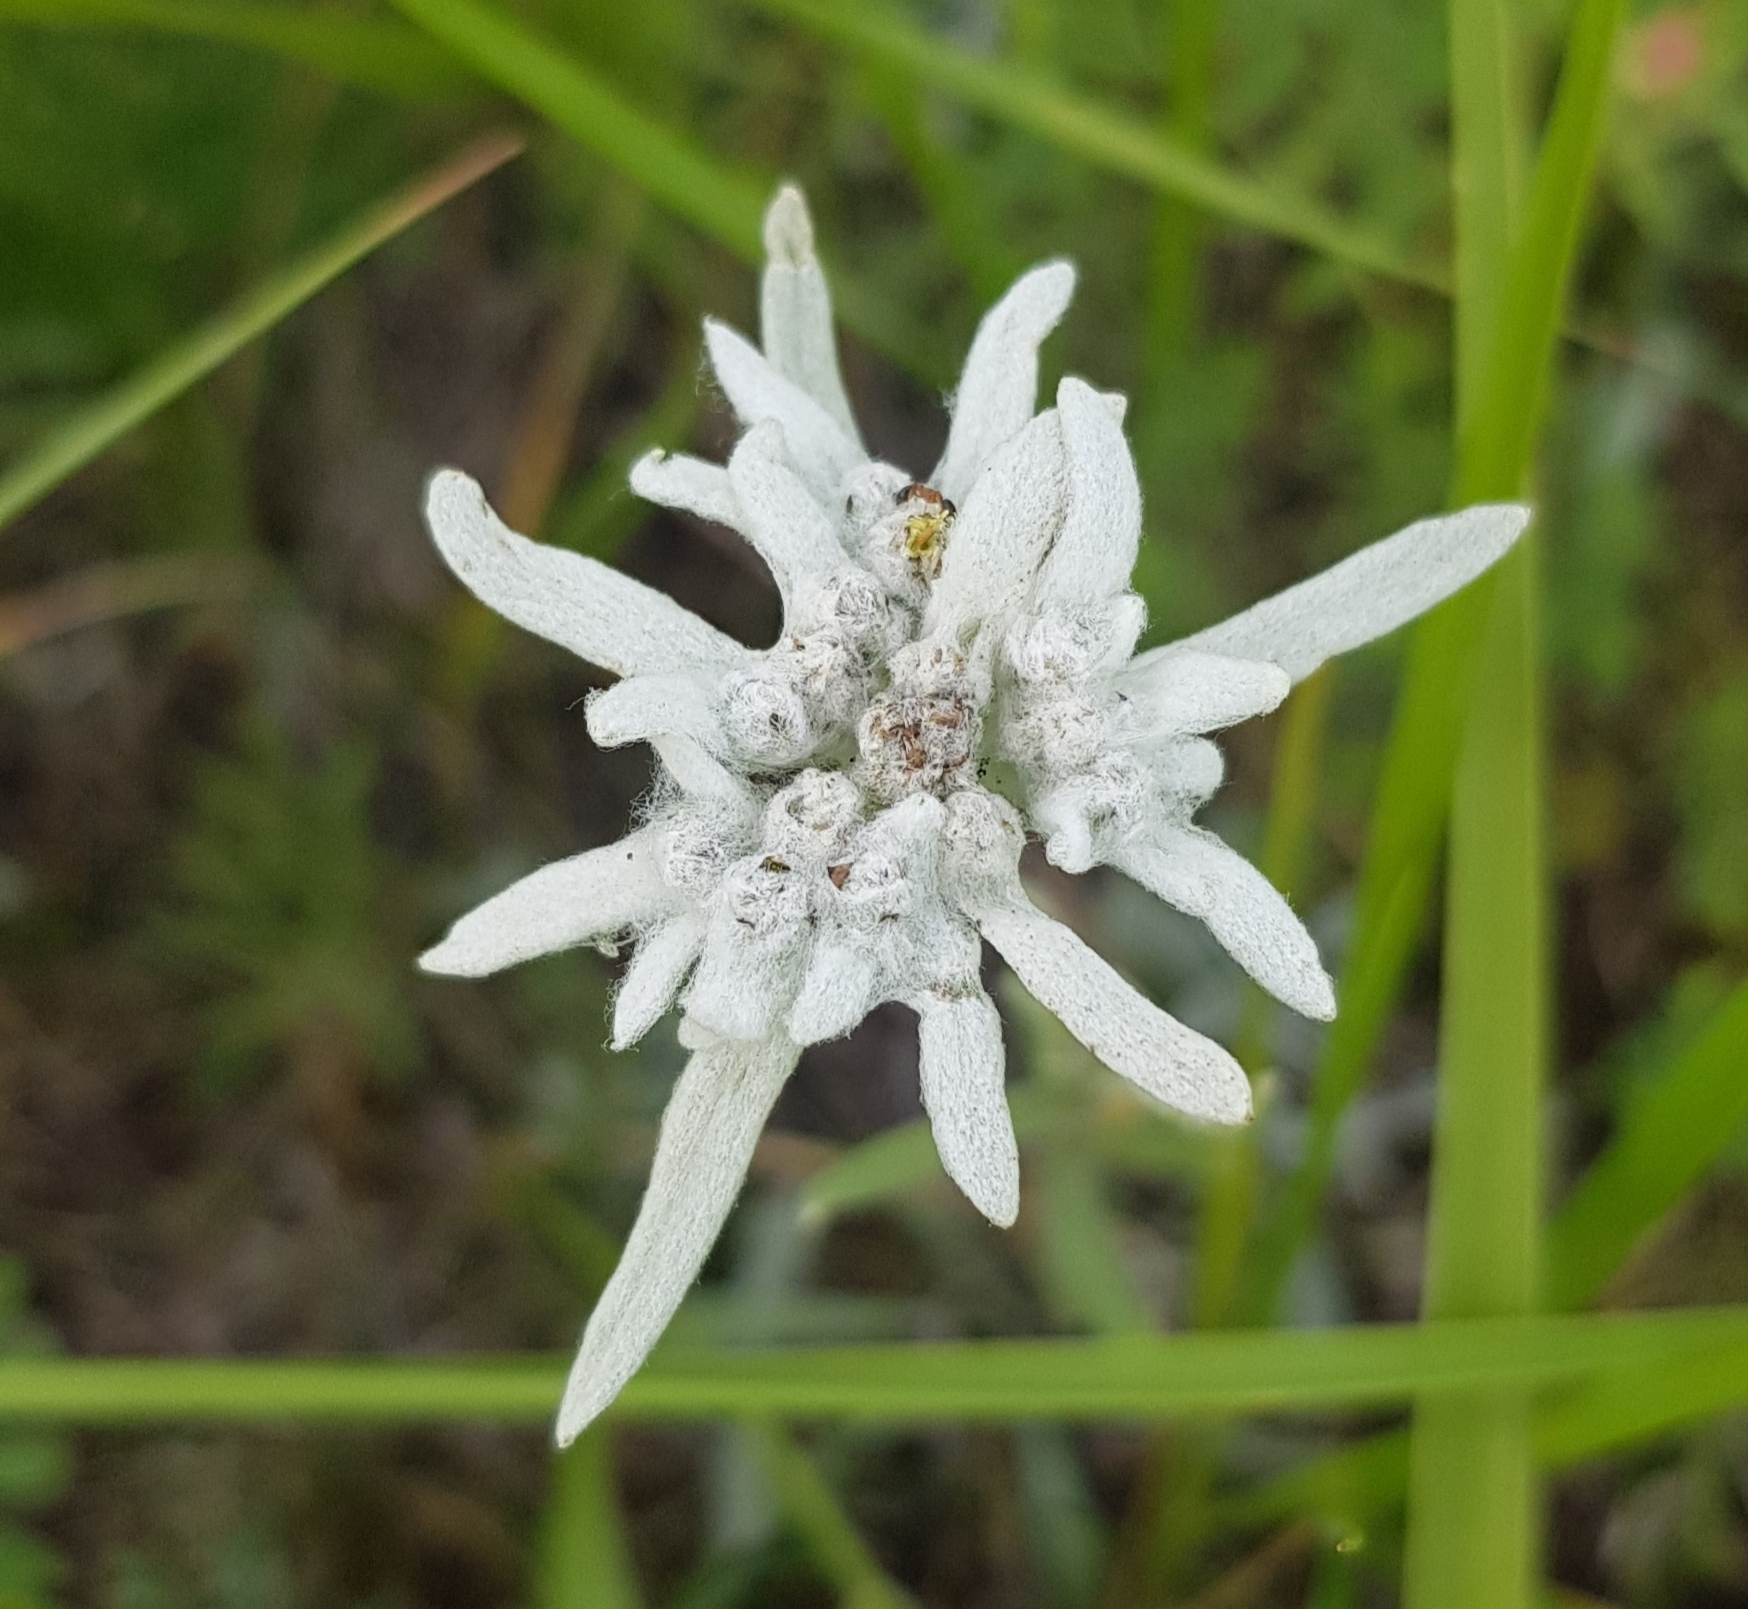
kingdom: Plantae
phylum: Tracheophyta
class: Magnoliopsida
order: Asterales
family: Asteraceae
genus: Leontopodium
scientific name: Leontopodium campestre
